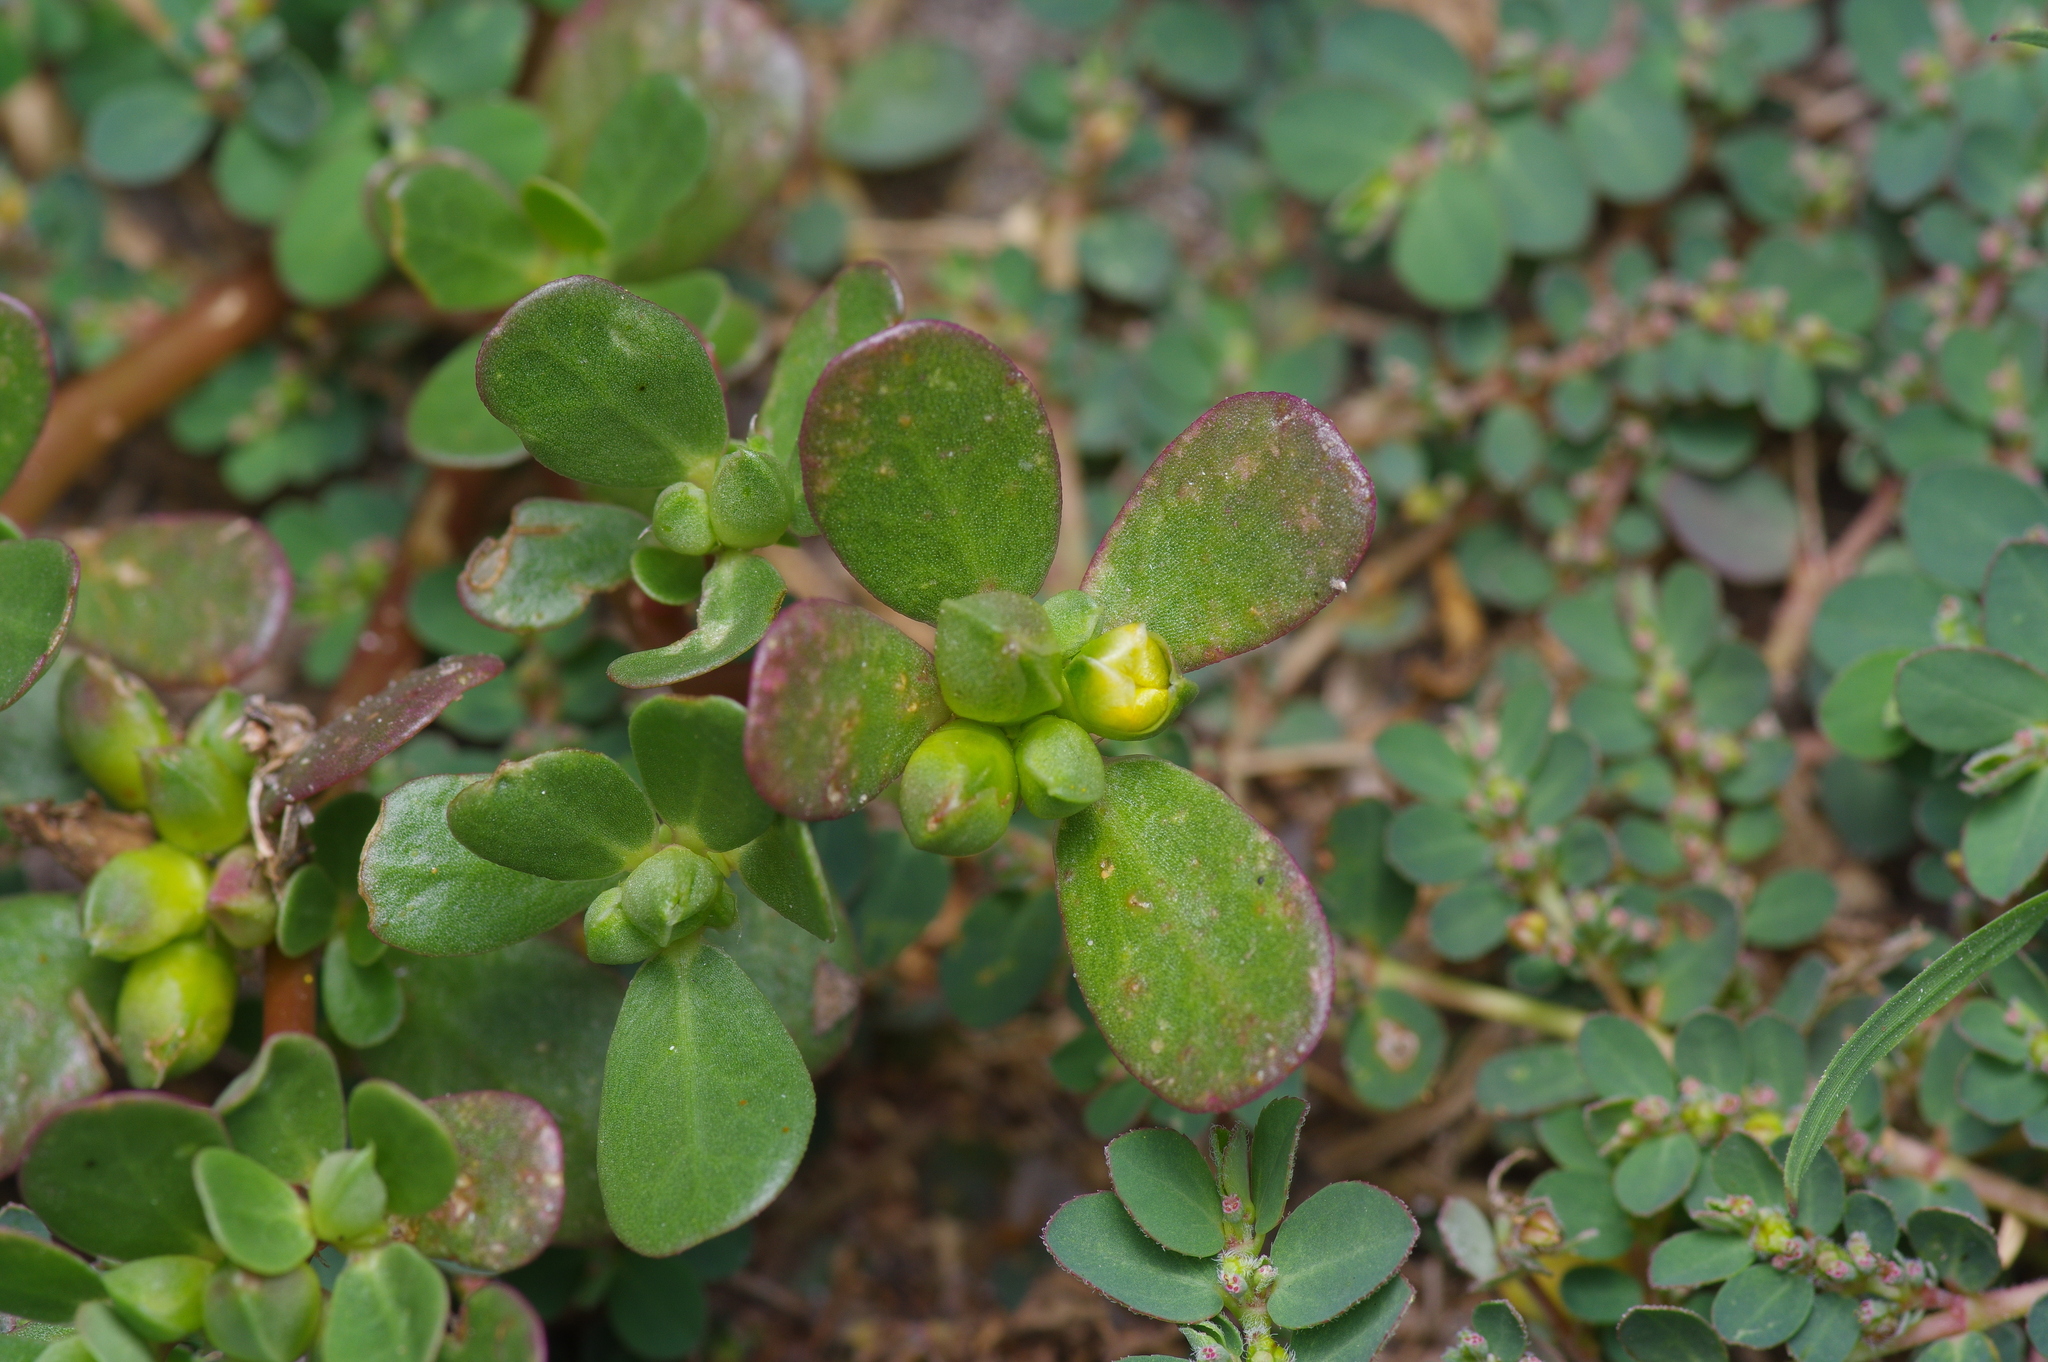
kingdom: Plantae
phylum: Tracheophyta
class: Magnoliopsida
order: Caryophyllales
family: Portulacaceae
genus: Portulaca
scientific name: Portulaca oleracea
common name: Common purslane
